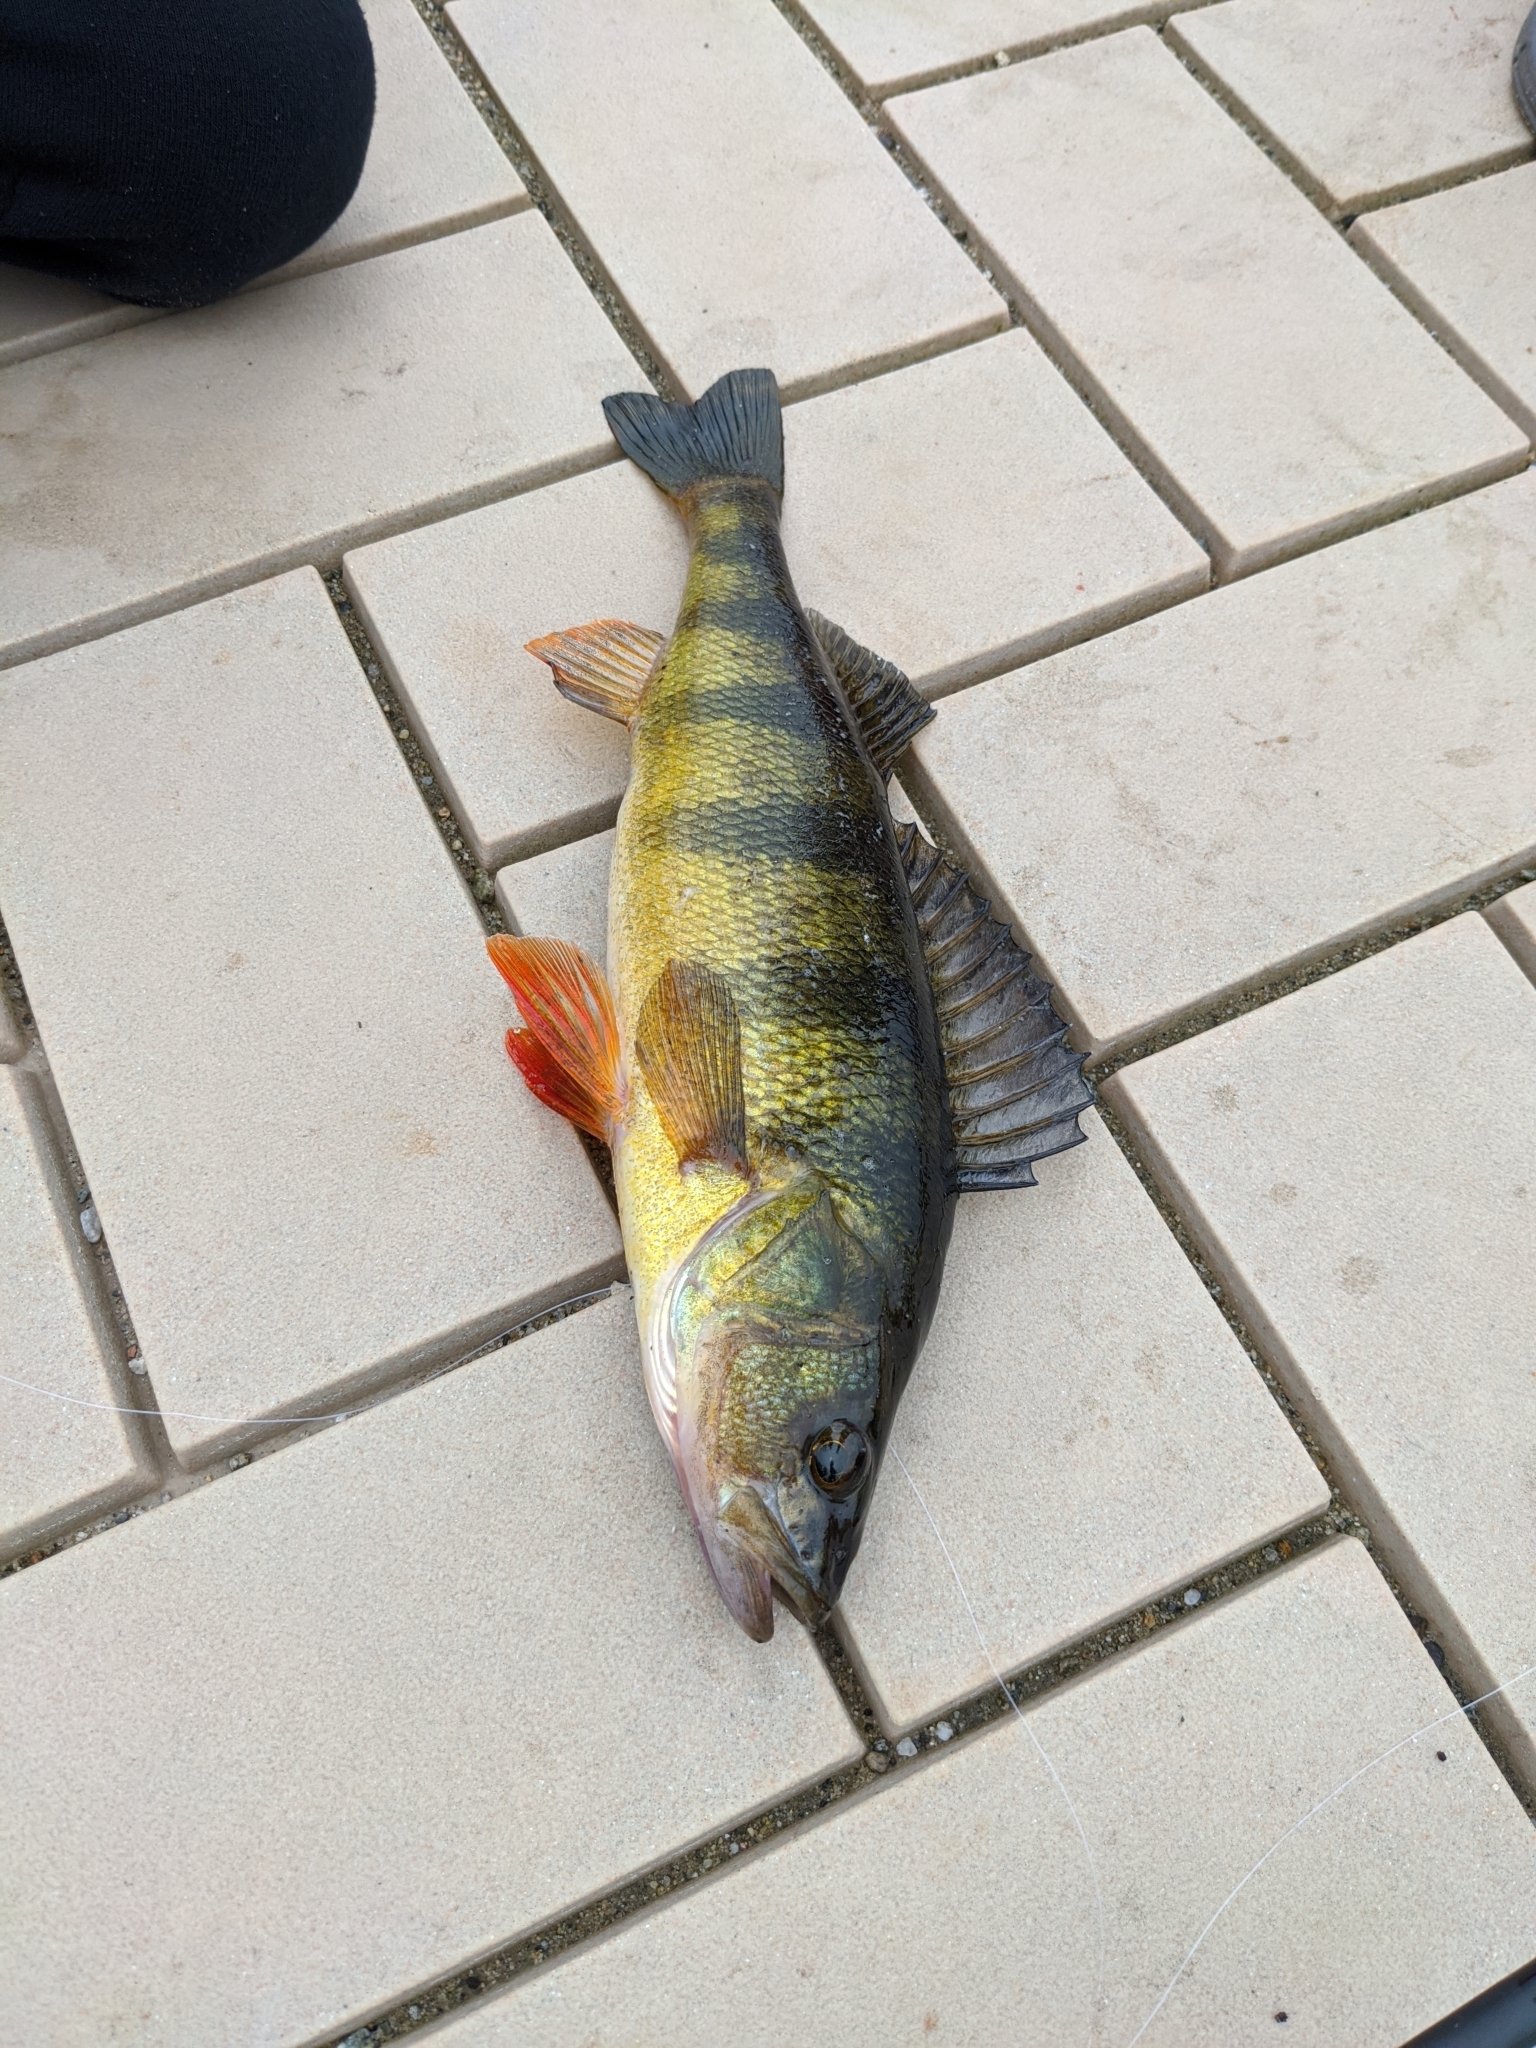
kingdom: Animalia
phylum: Chordata
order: Perciformes
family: Percidae
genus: Perca
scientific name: Perca flavescens
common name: Yellow perch
